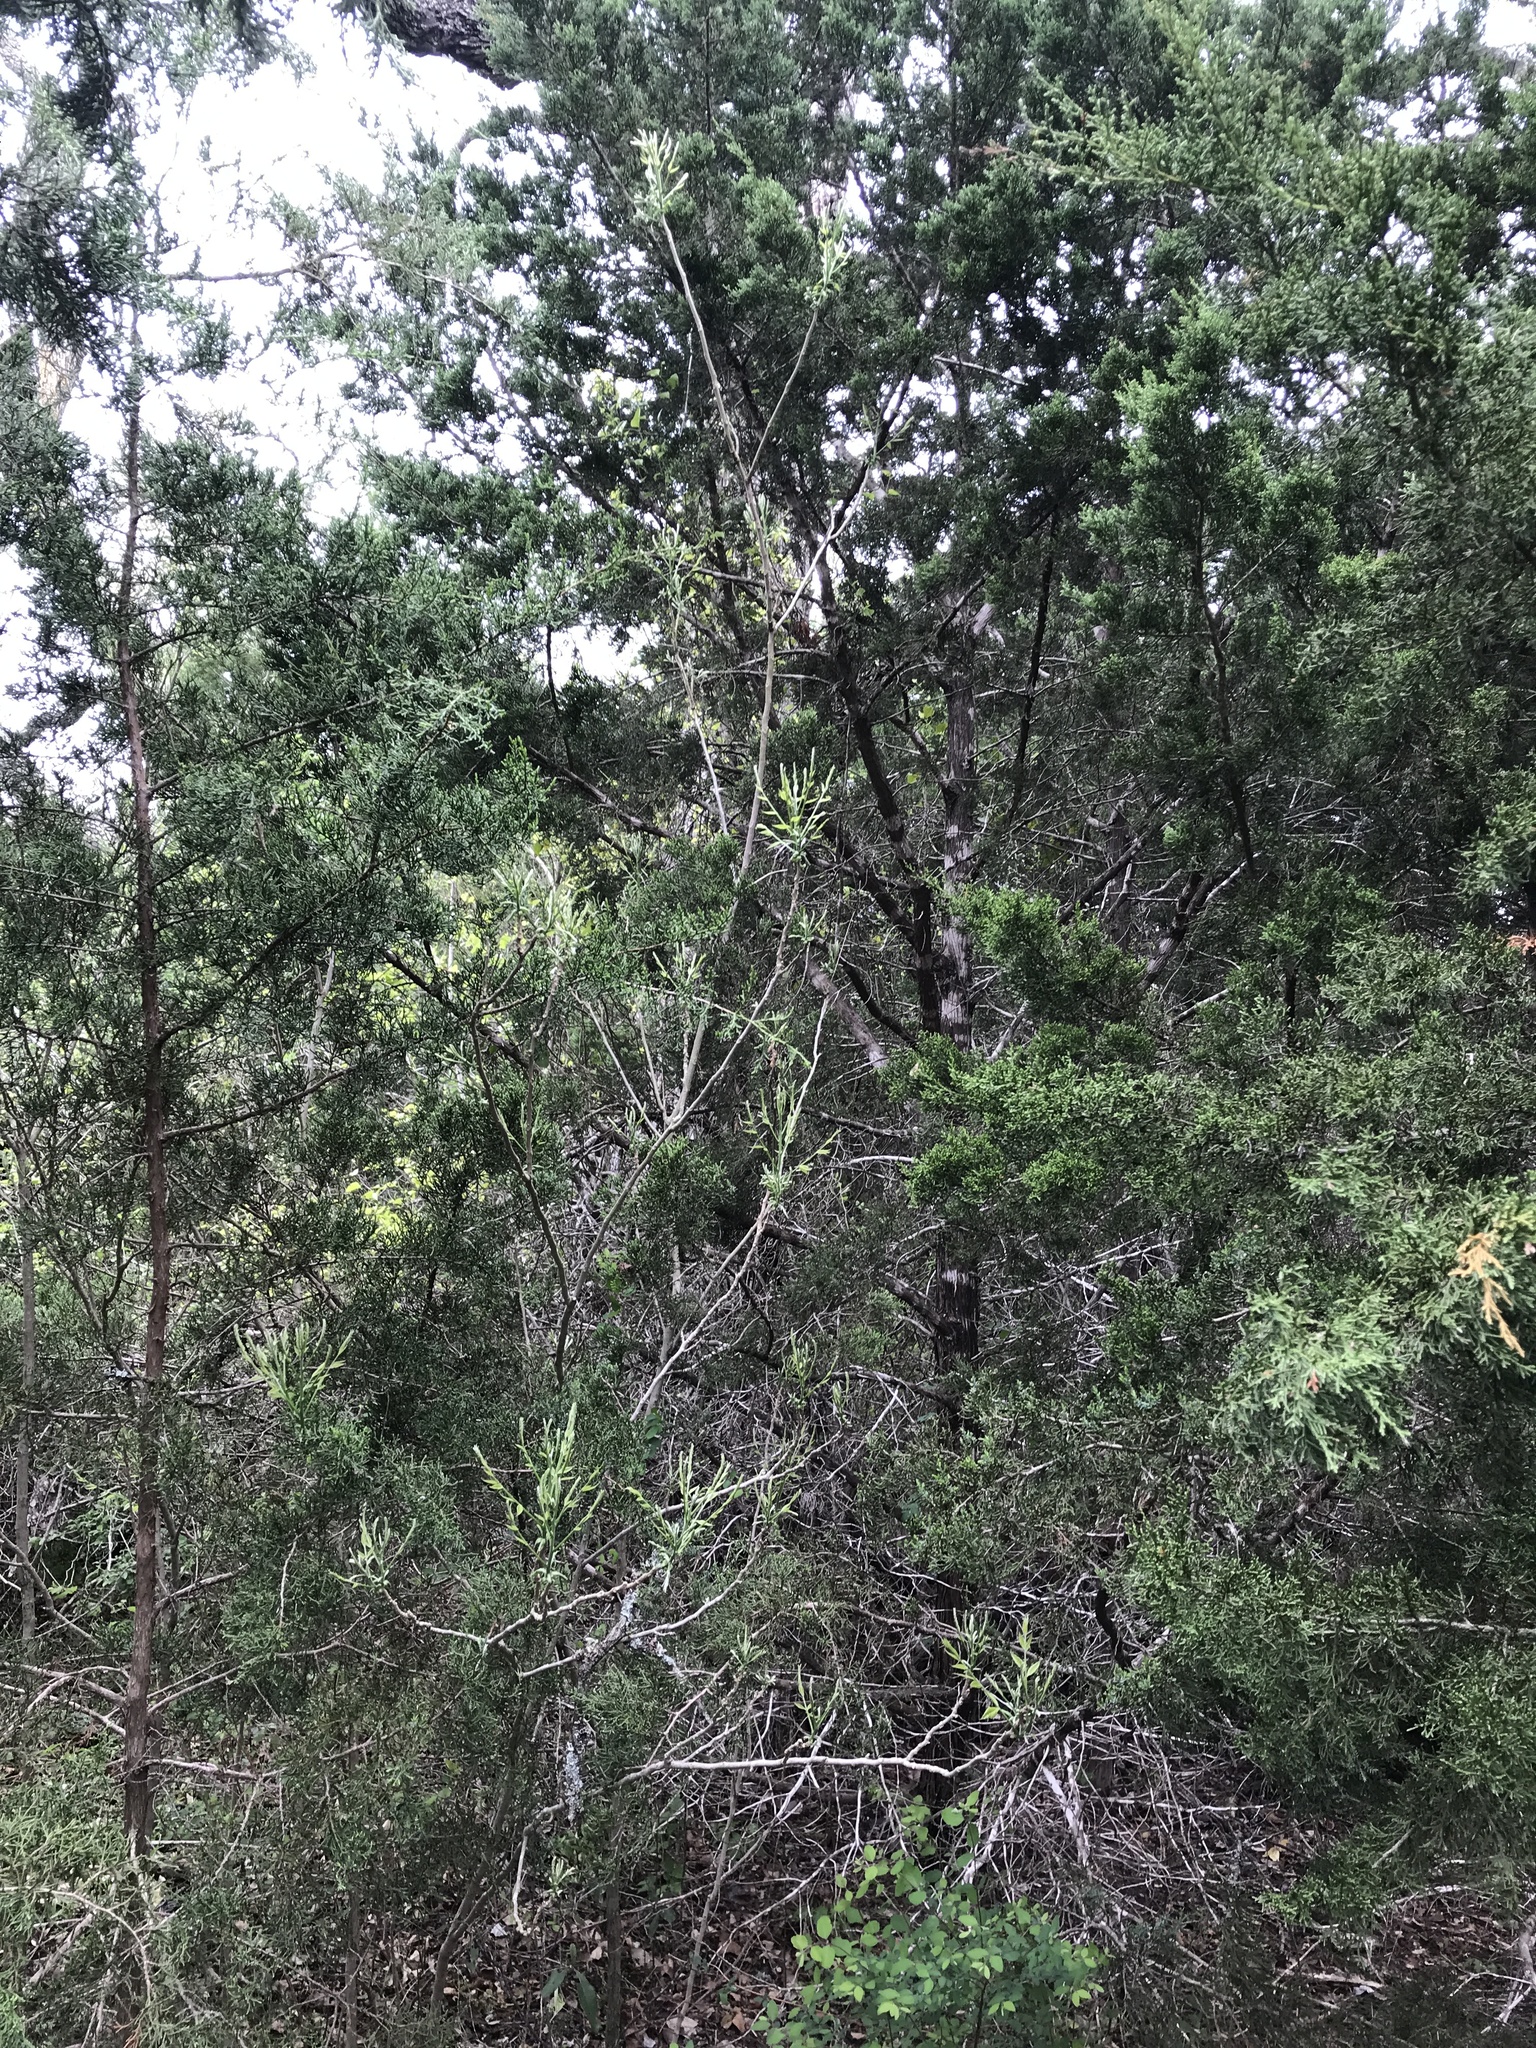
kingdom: Plantae
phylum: Tracheophyta
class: Magnoliopsida
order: Sapindales
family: Sapindaceae
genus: Sapindus
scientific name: Sapindus drummondii
